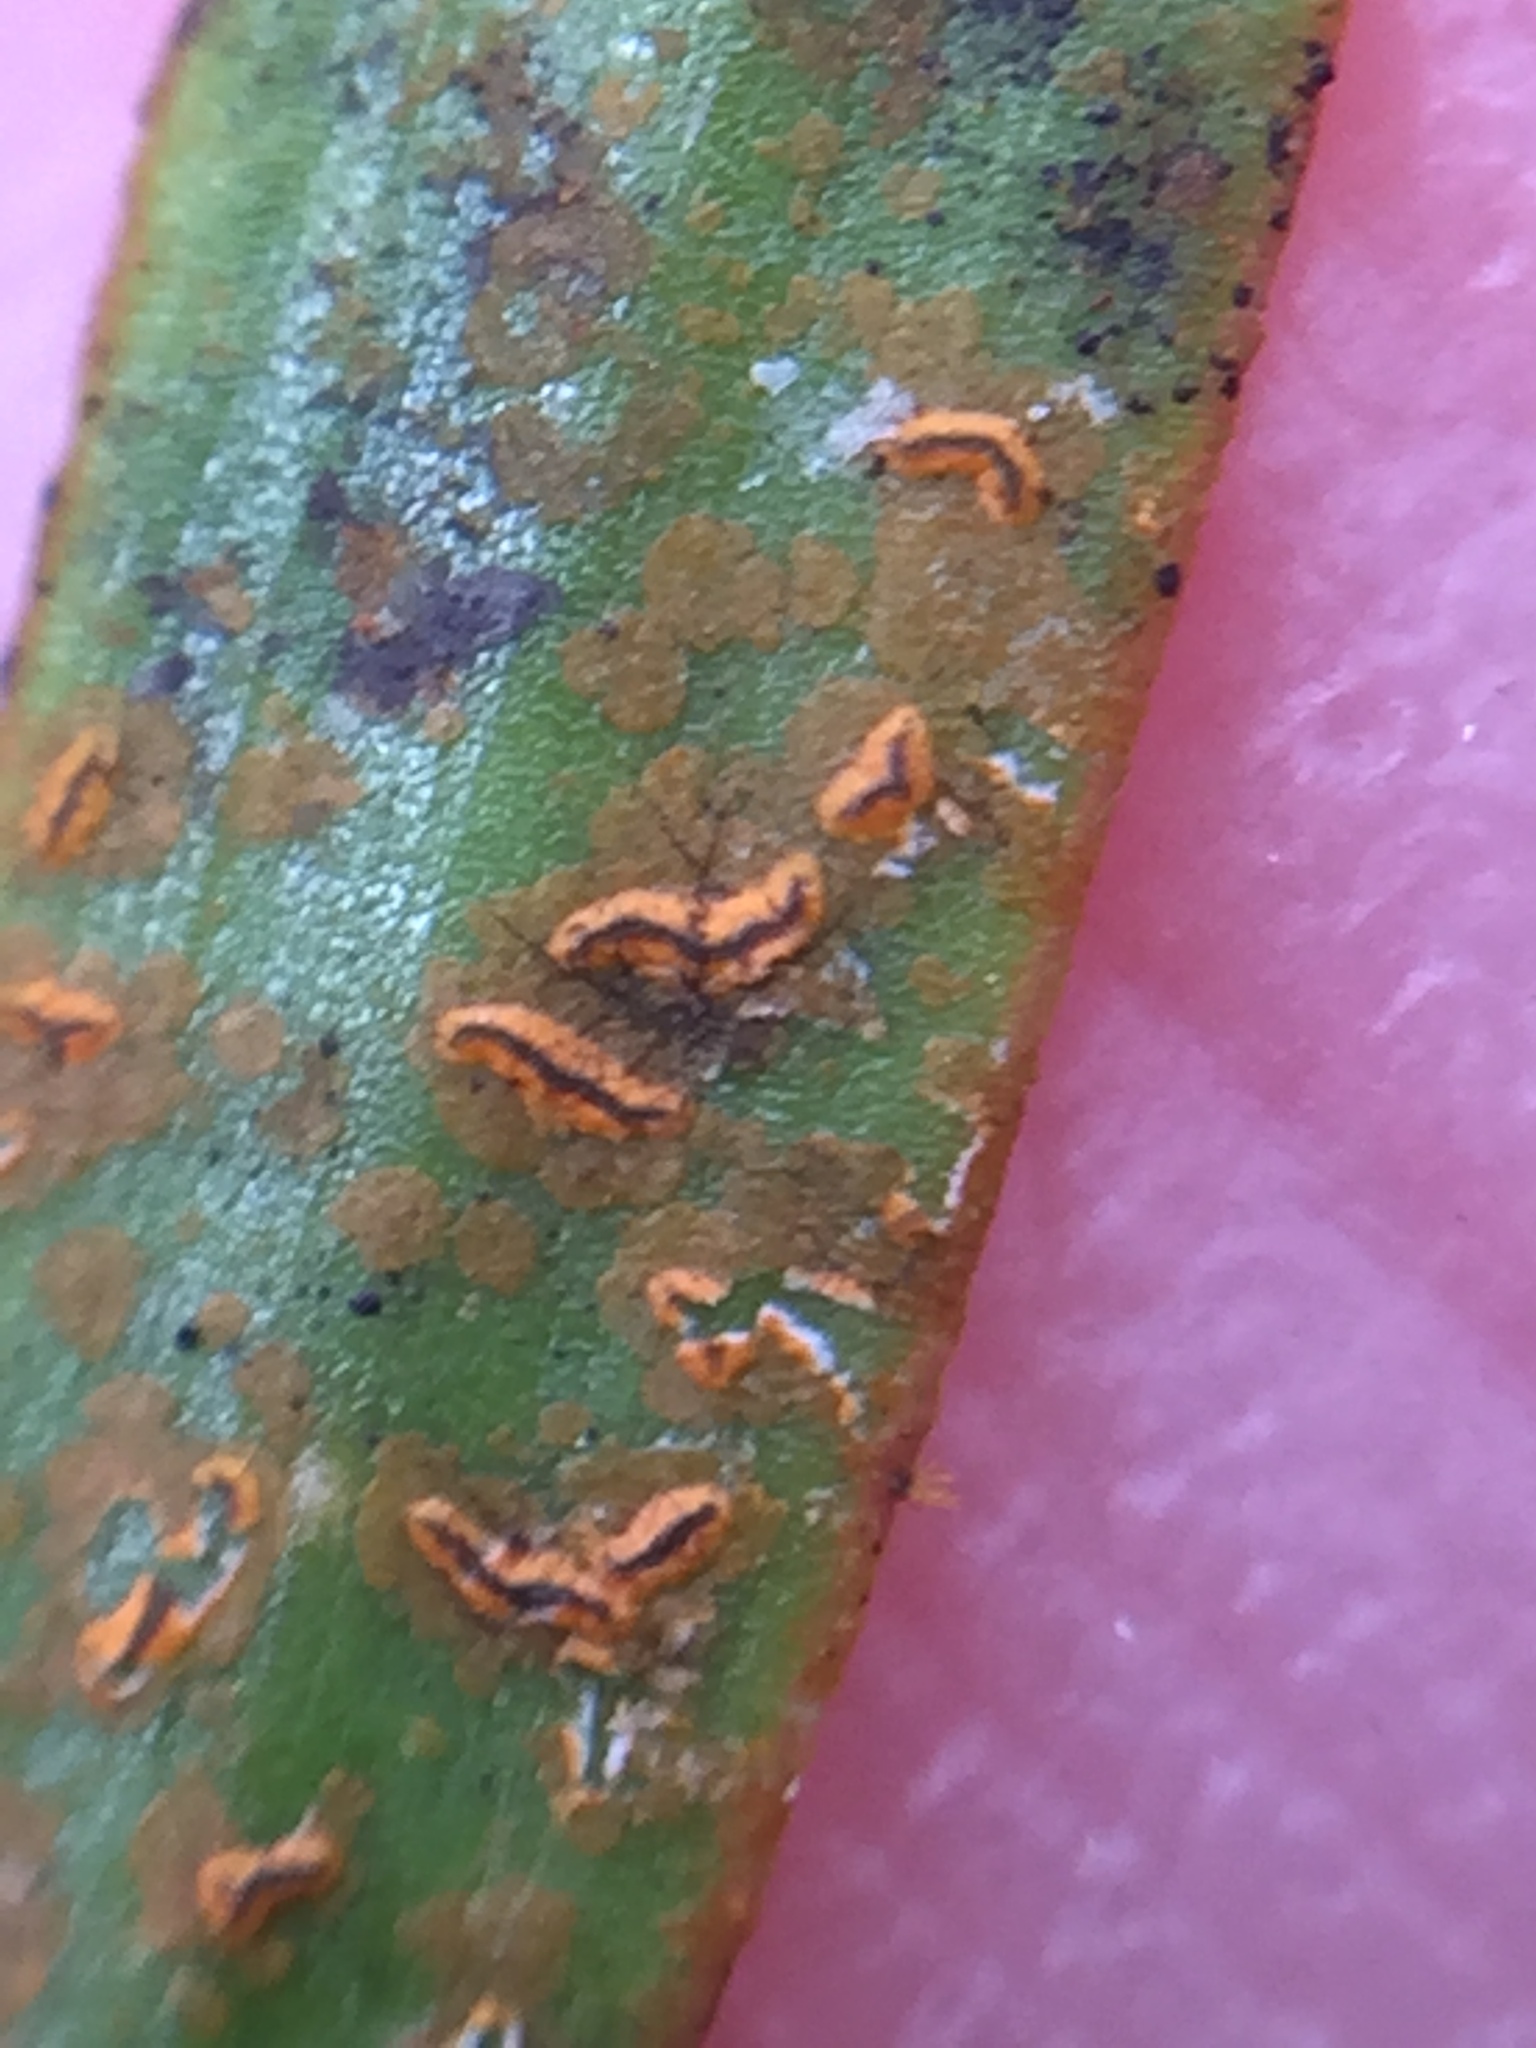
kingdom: Fungi
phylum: Ascomycota
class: Arthoniomycetes
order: Arthoniales
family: Roccellaceae
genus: Enterographa
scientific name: Enterographa bella
